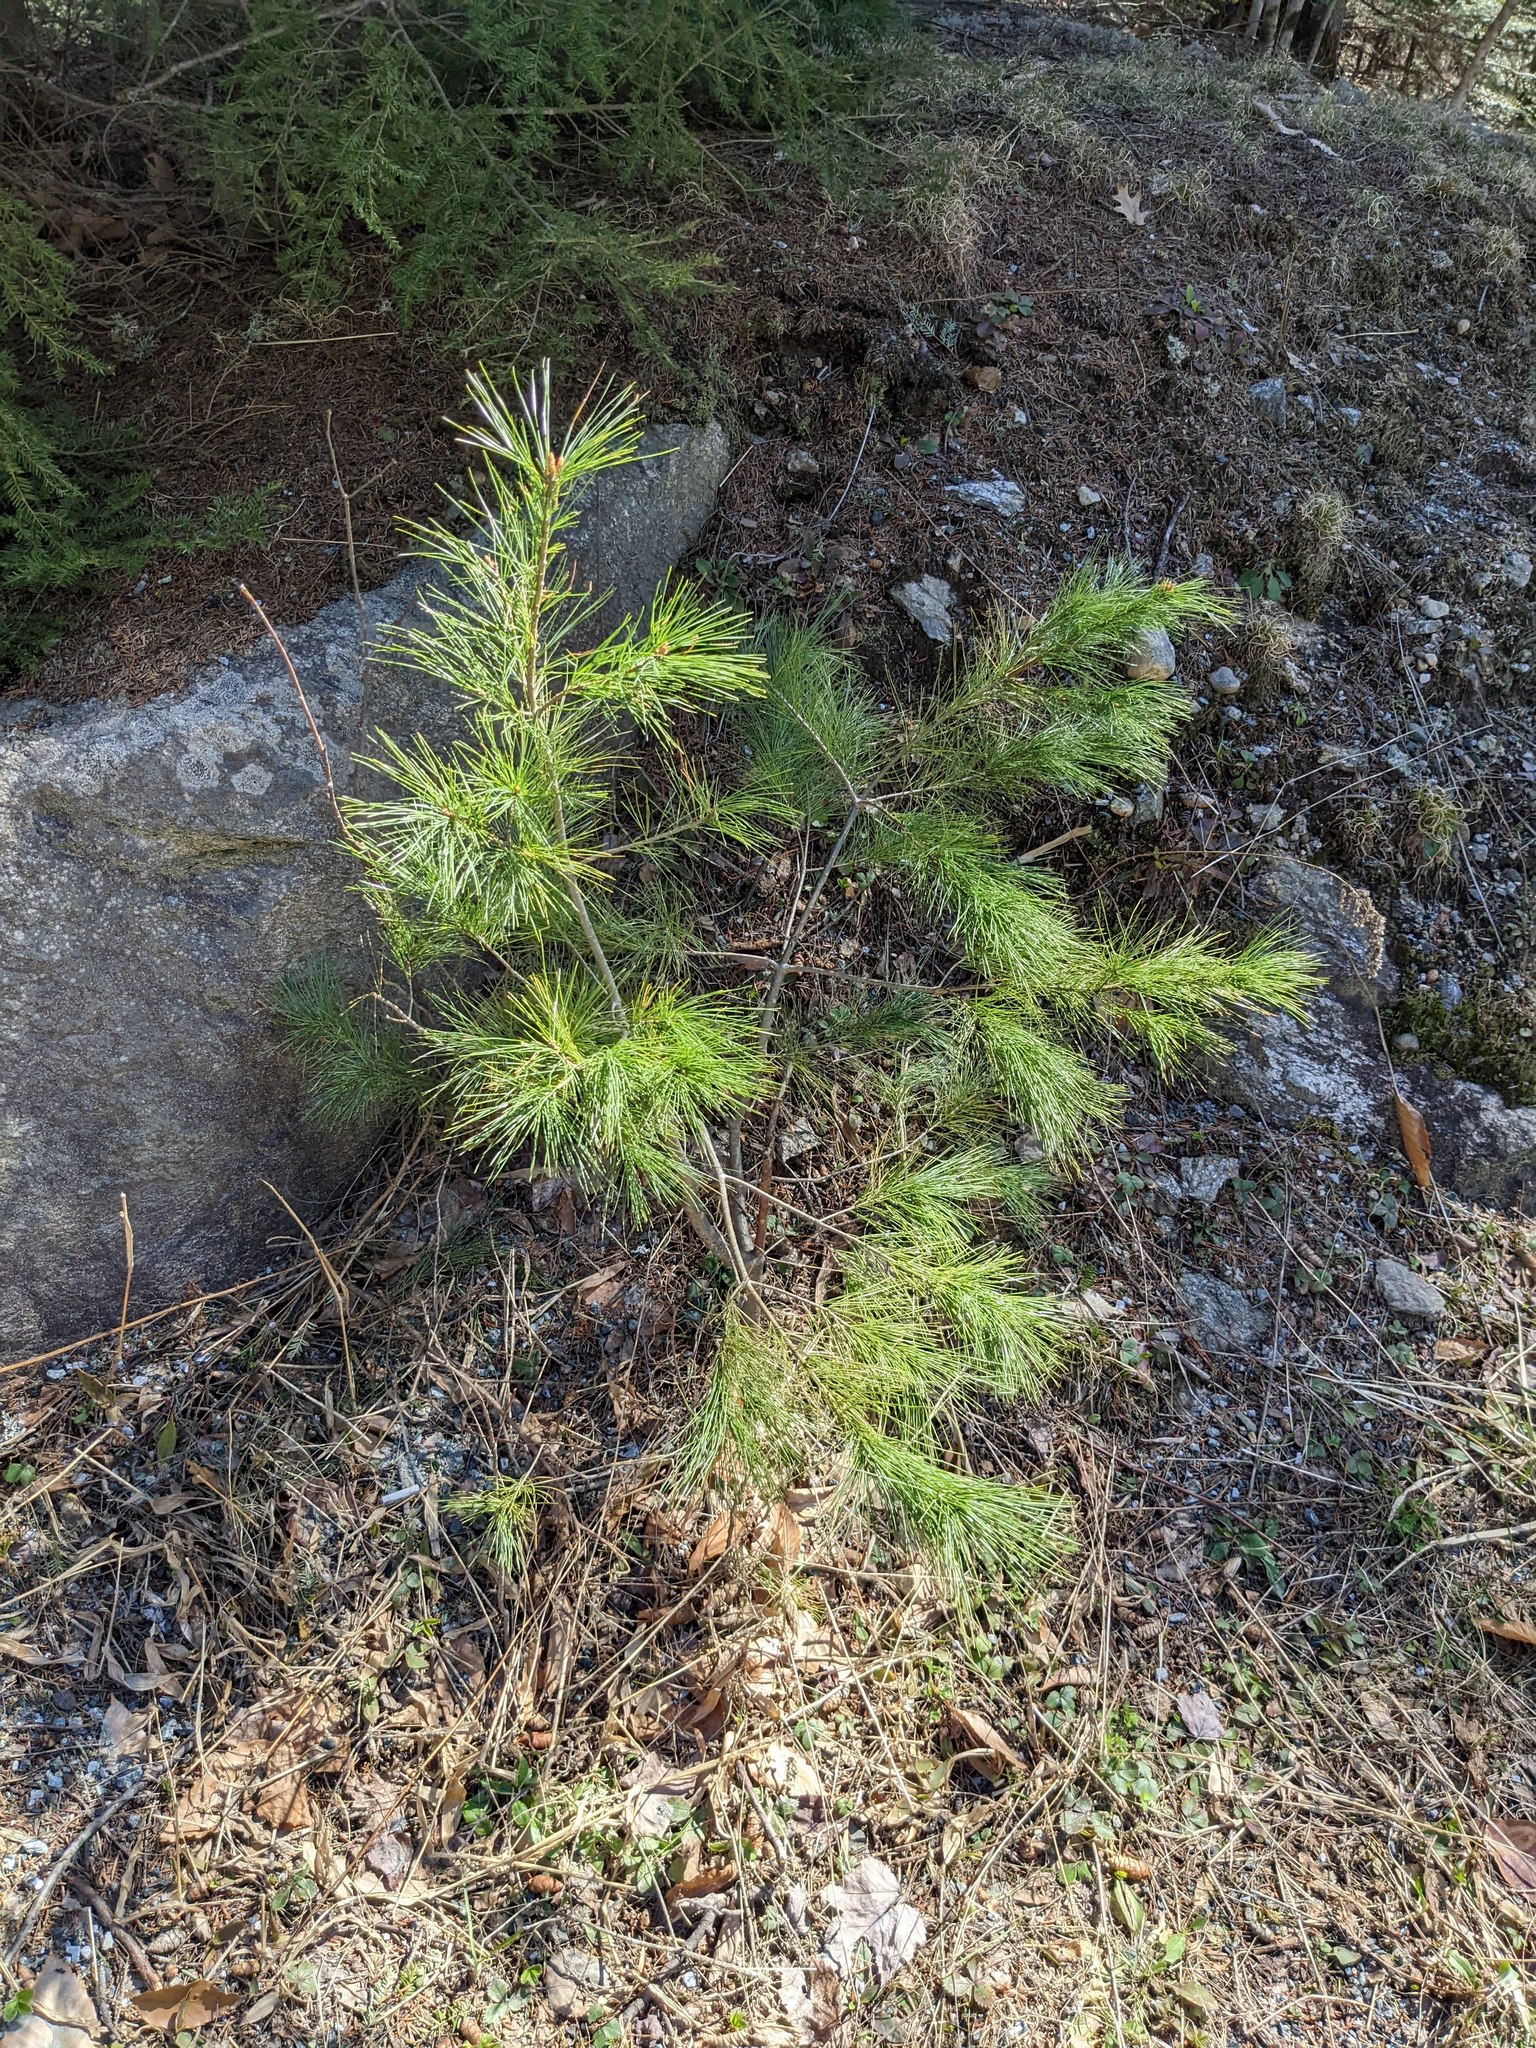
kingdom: Plantae
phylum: Tracheophyta
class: Pinopsida
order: Pinales
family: Pinaceae
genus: Pinus
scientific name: Pinus strobus
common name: Weymouth pine
